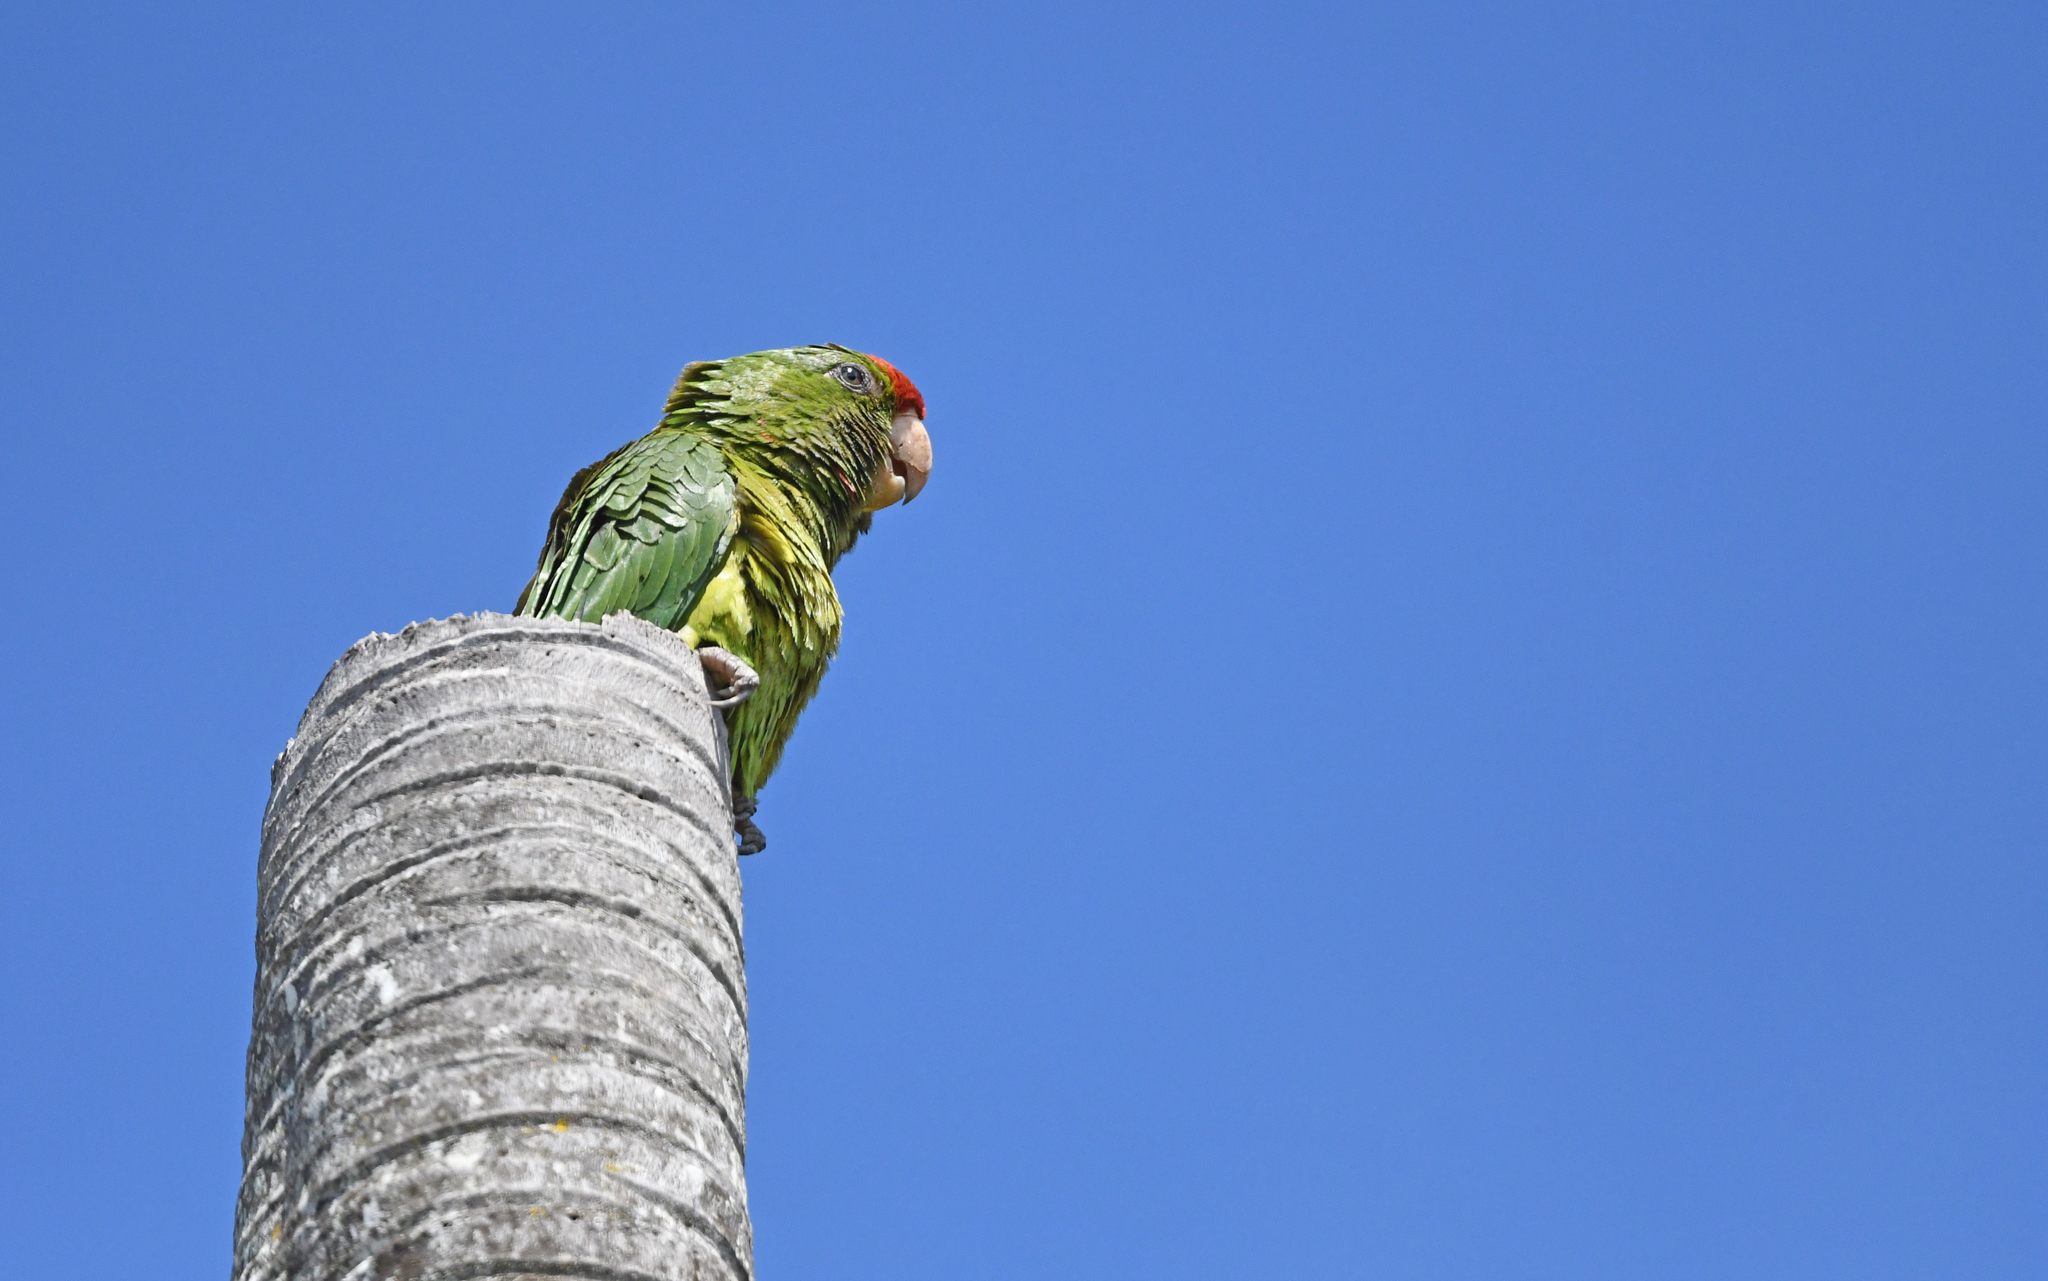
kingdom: Animalia
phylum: Chordata
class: Aves
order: Psittaciformes
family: Psittacidae
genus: Aratinga
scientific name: Aratinga wagleri
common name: Scarlet-fronted parakeet
